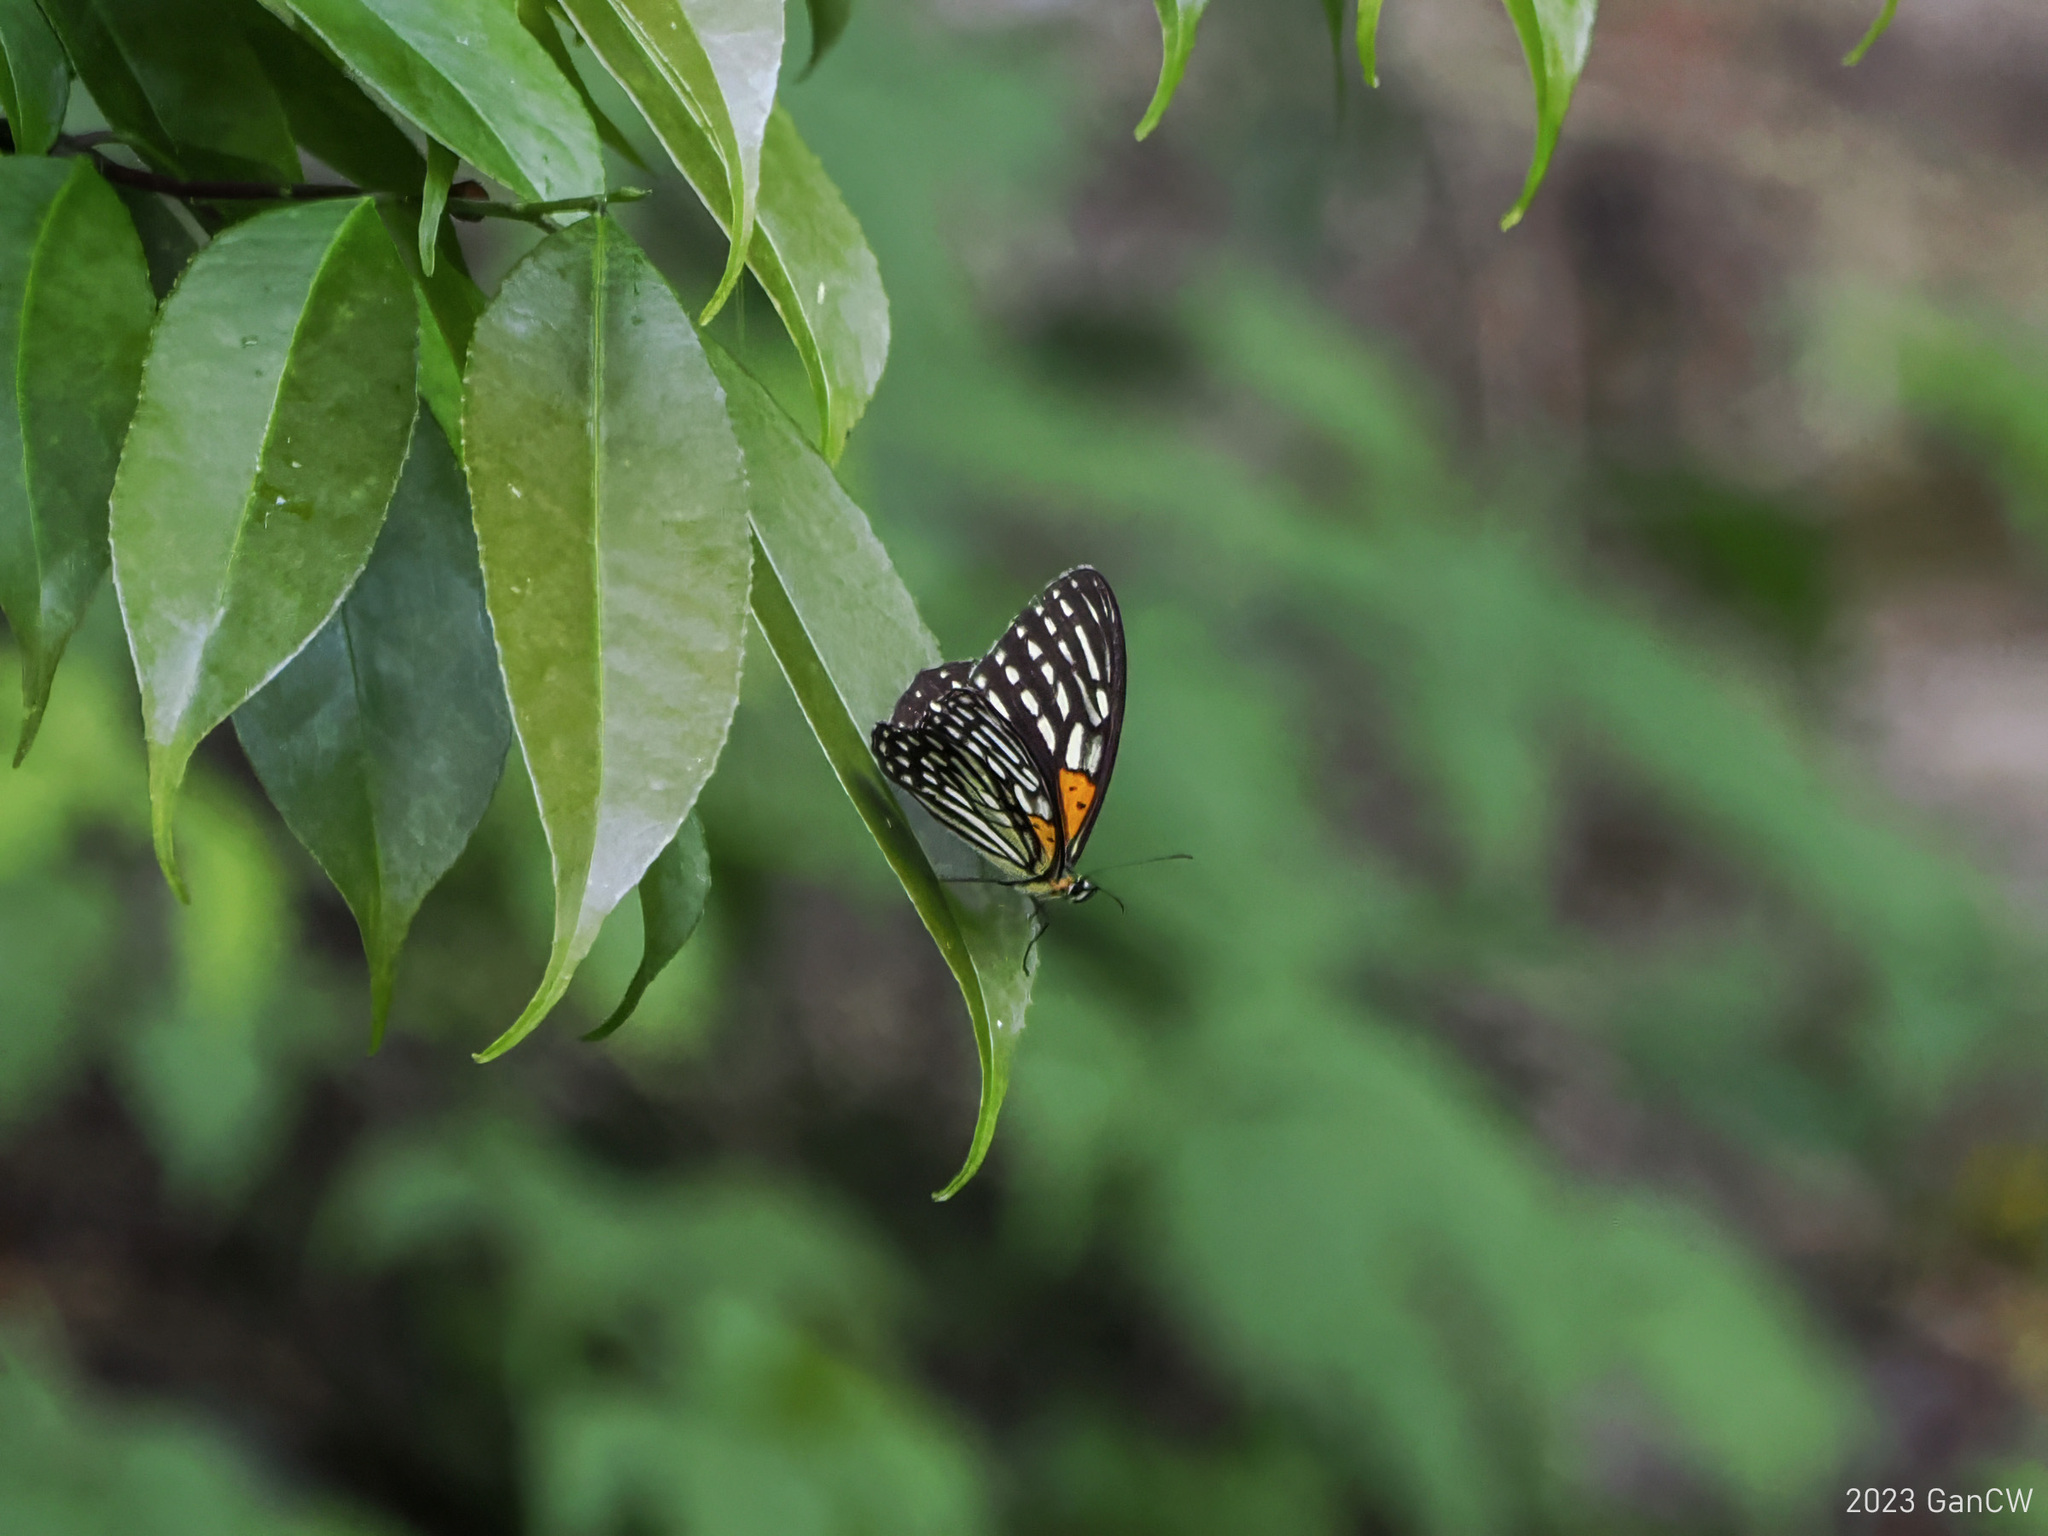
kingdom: Animalia
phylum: Arthropoda
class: Insecta
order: Lepidoptera
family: Nymphalidae
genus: Orinoma
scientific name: Orinoma damaris
